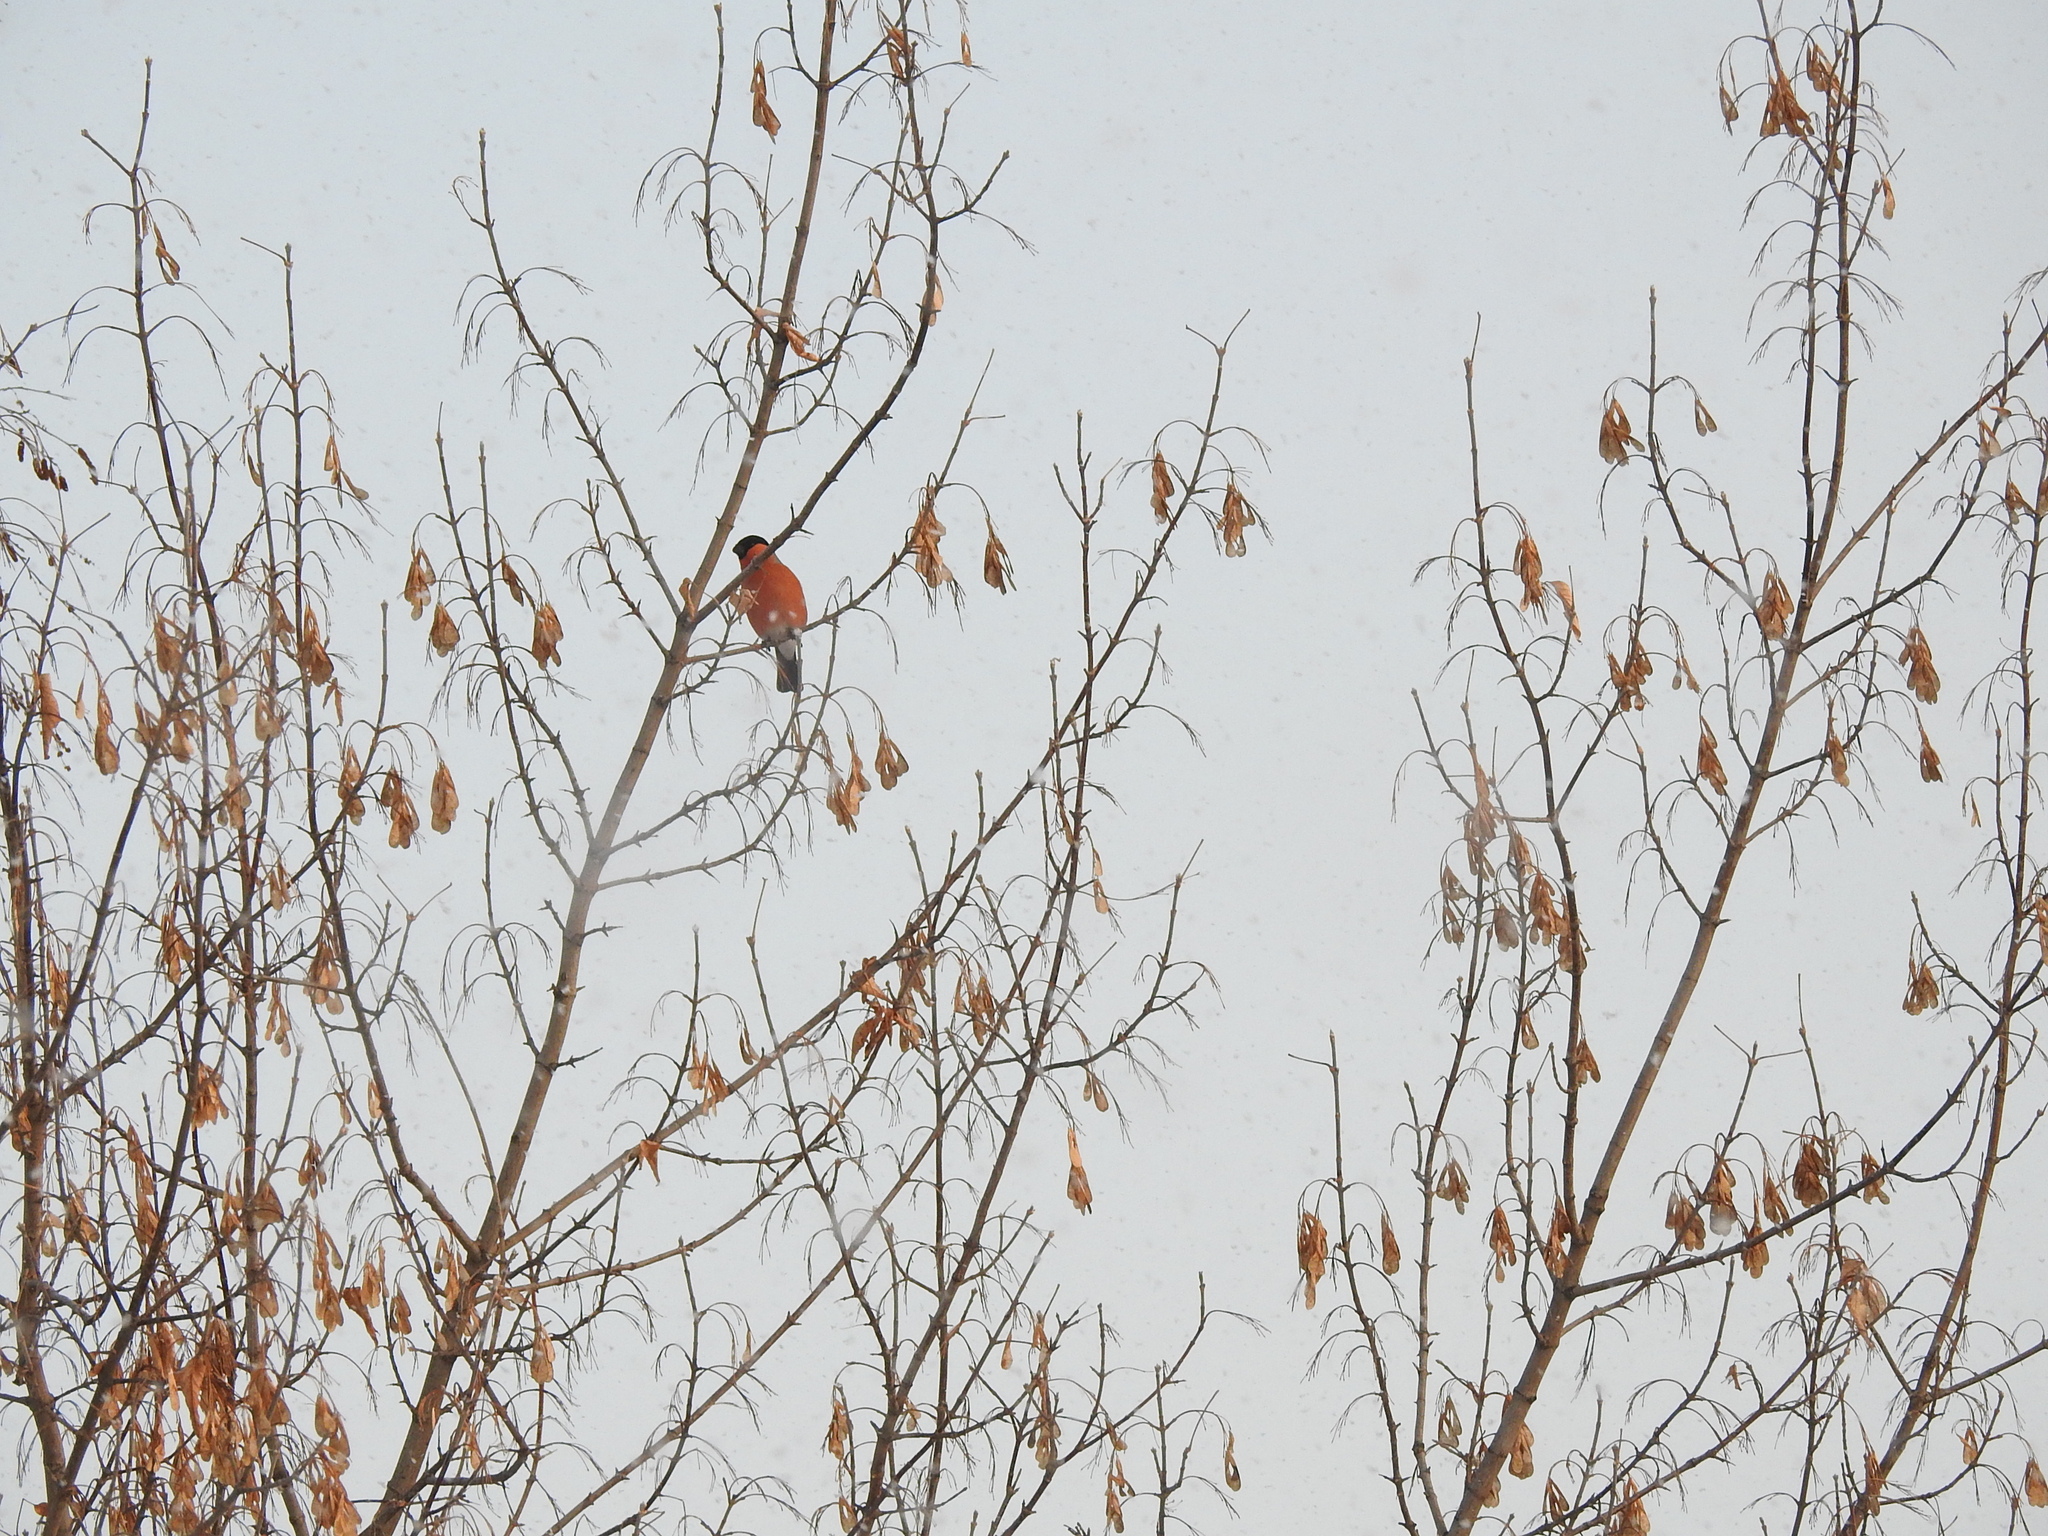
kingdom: Animalia
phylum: Chordata
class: Aves
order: Passeriformes
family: Fringillidae
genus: Pyrrhula
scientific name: Pyrrhula pyrrhula
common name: Eurasian bullfinch
